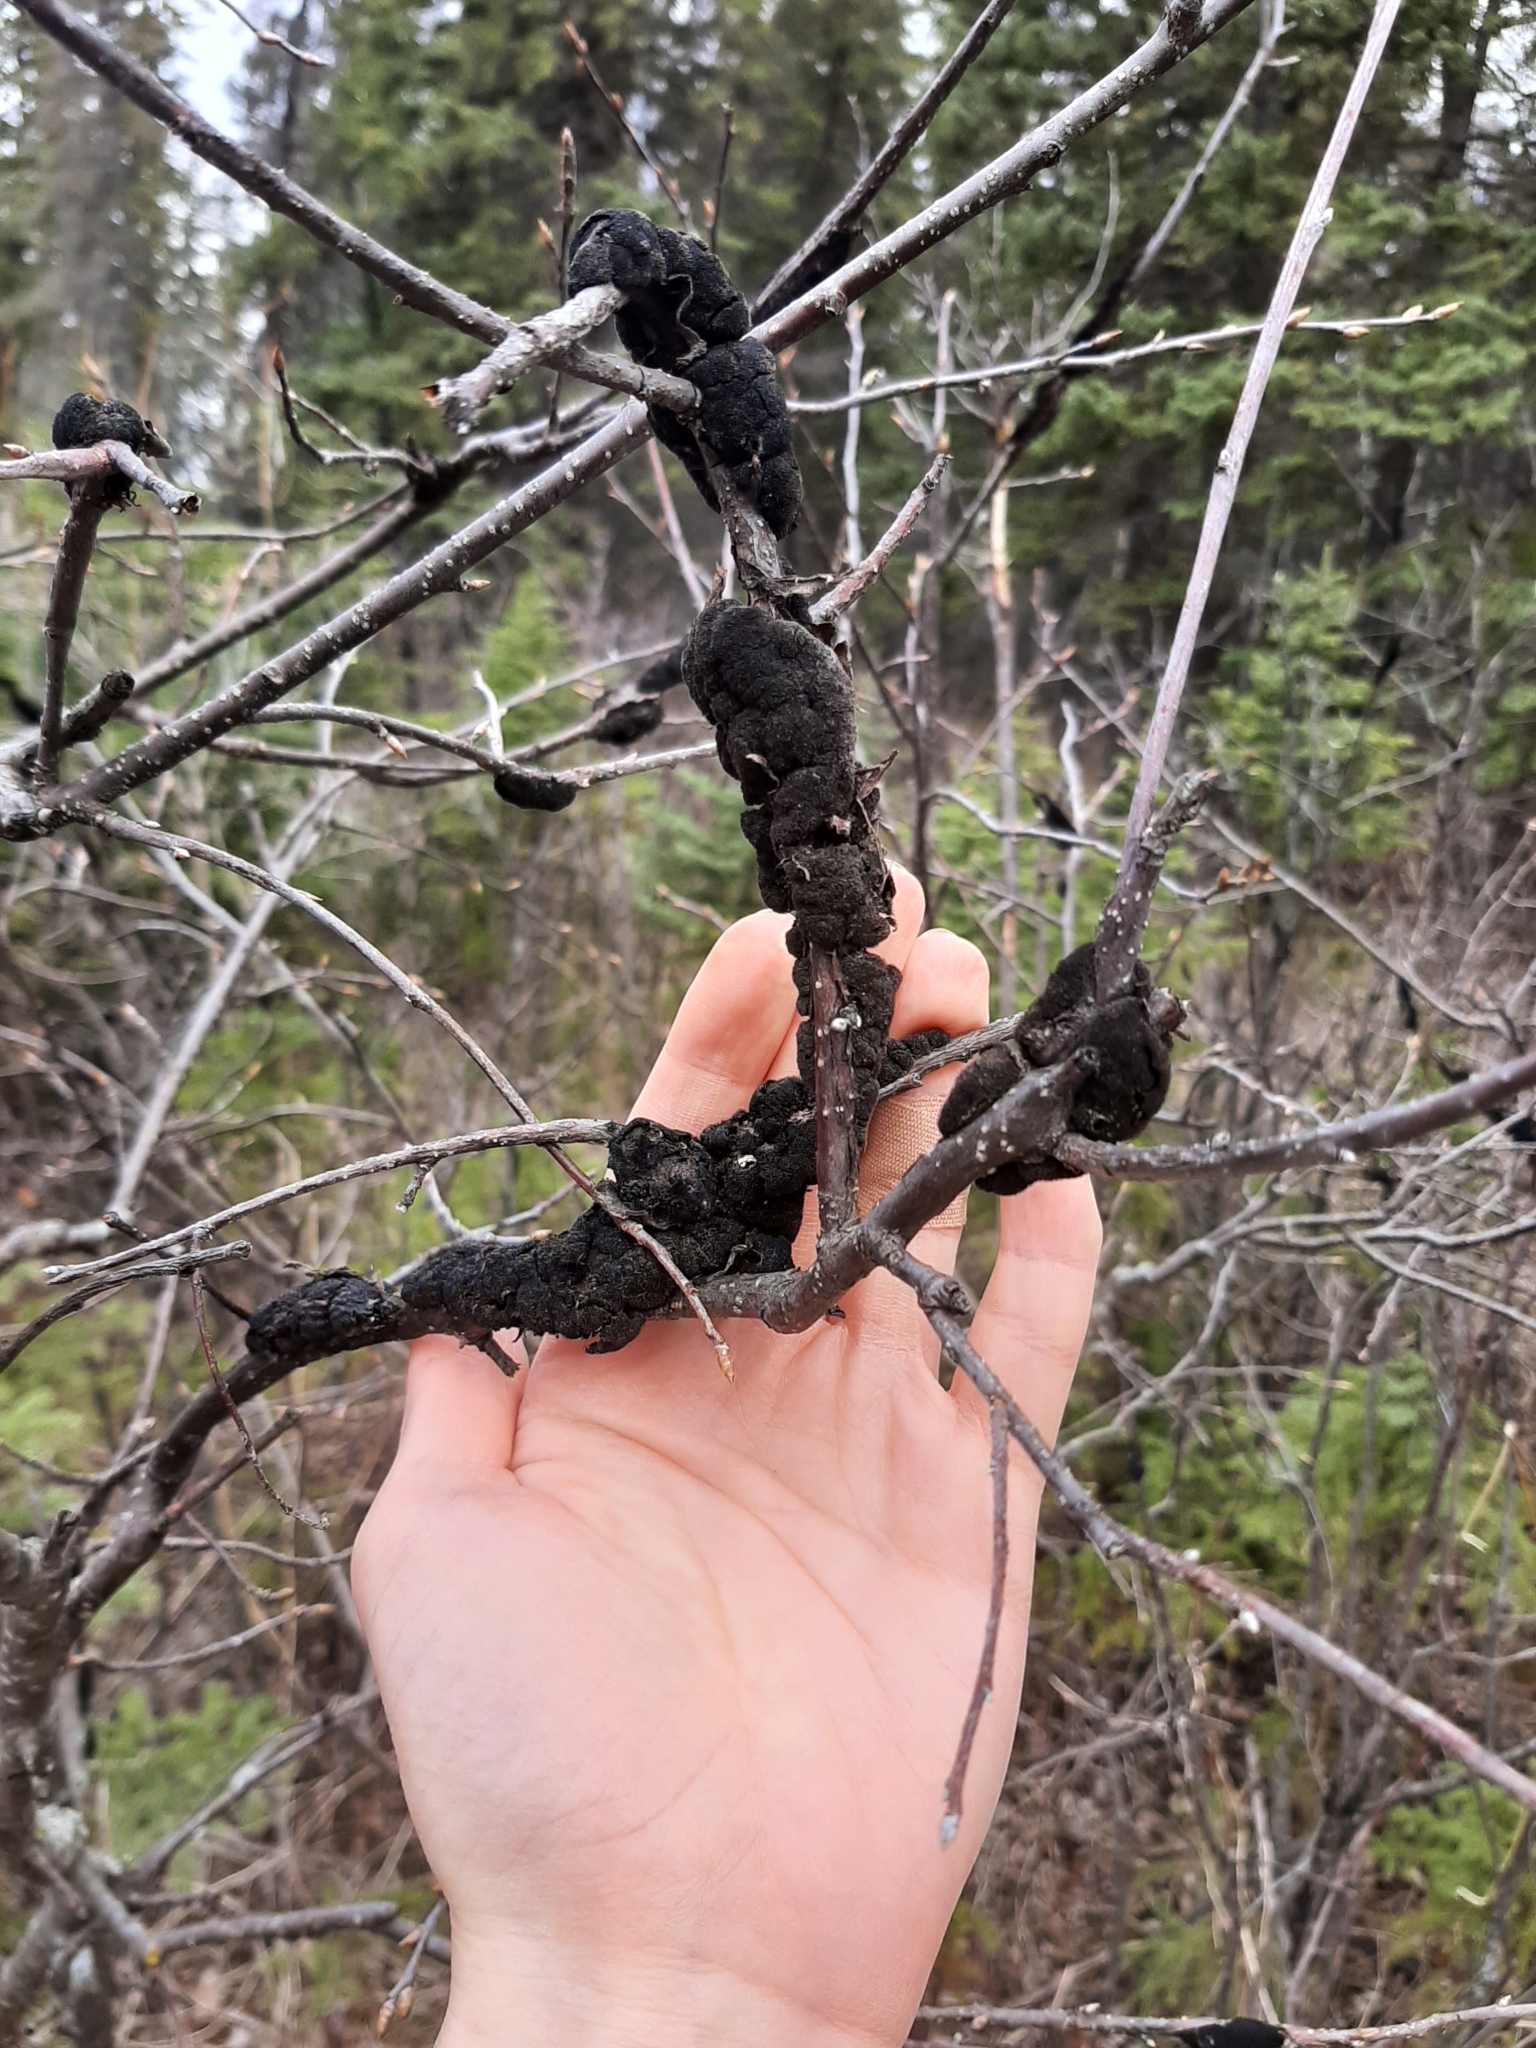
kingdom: Fungi
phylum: Ascomycota
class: Dothideomycetes
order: Venturiales
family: Venturiaceae
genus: Apiosporina
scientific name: Apiosporina morbosa
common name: Black knot
